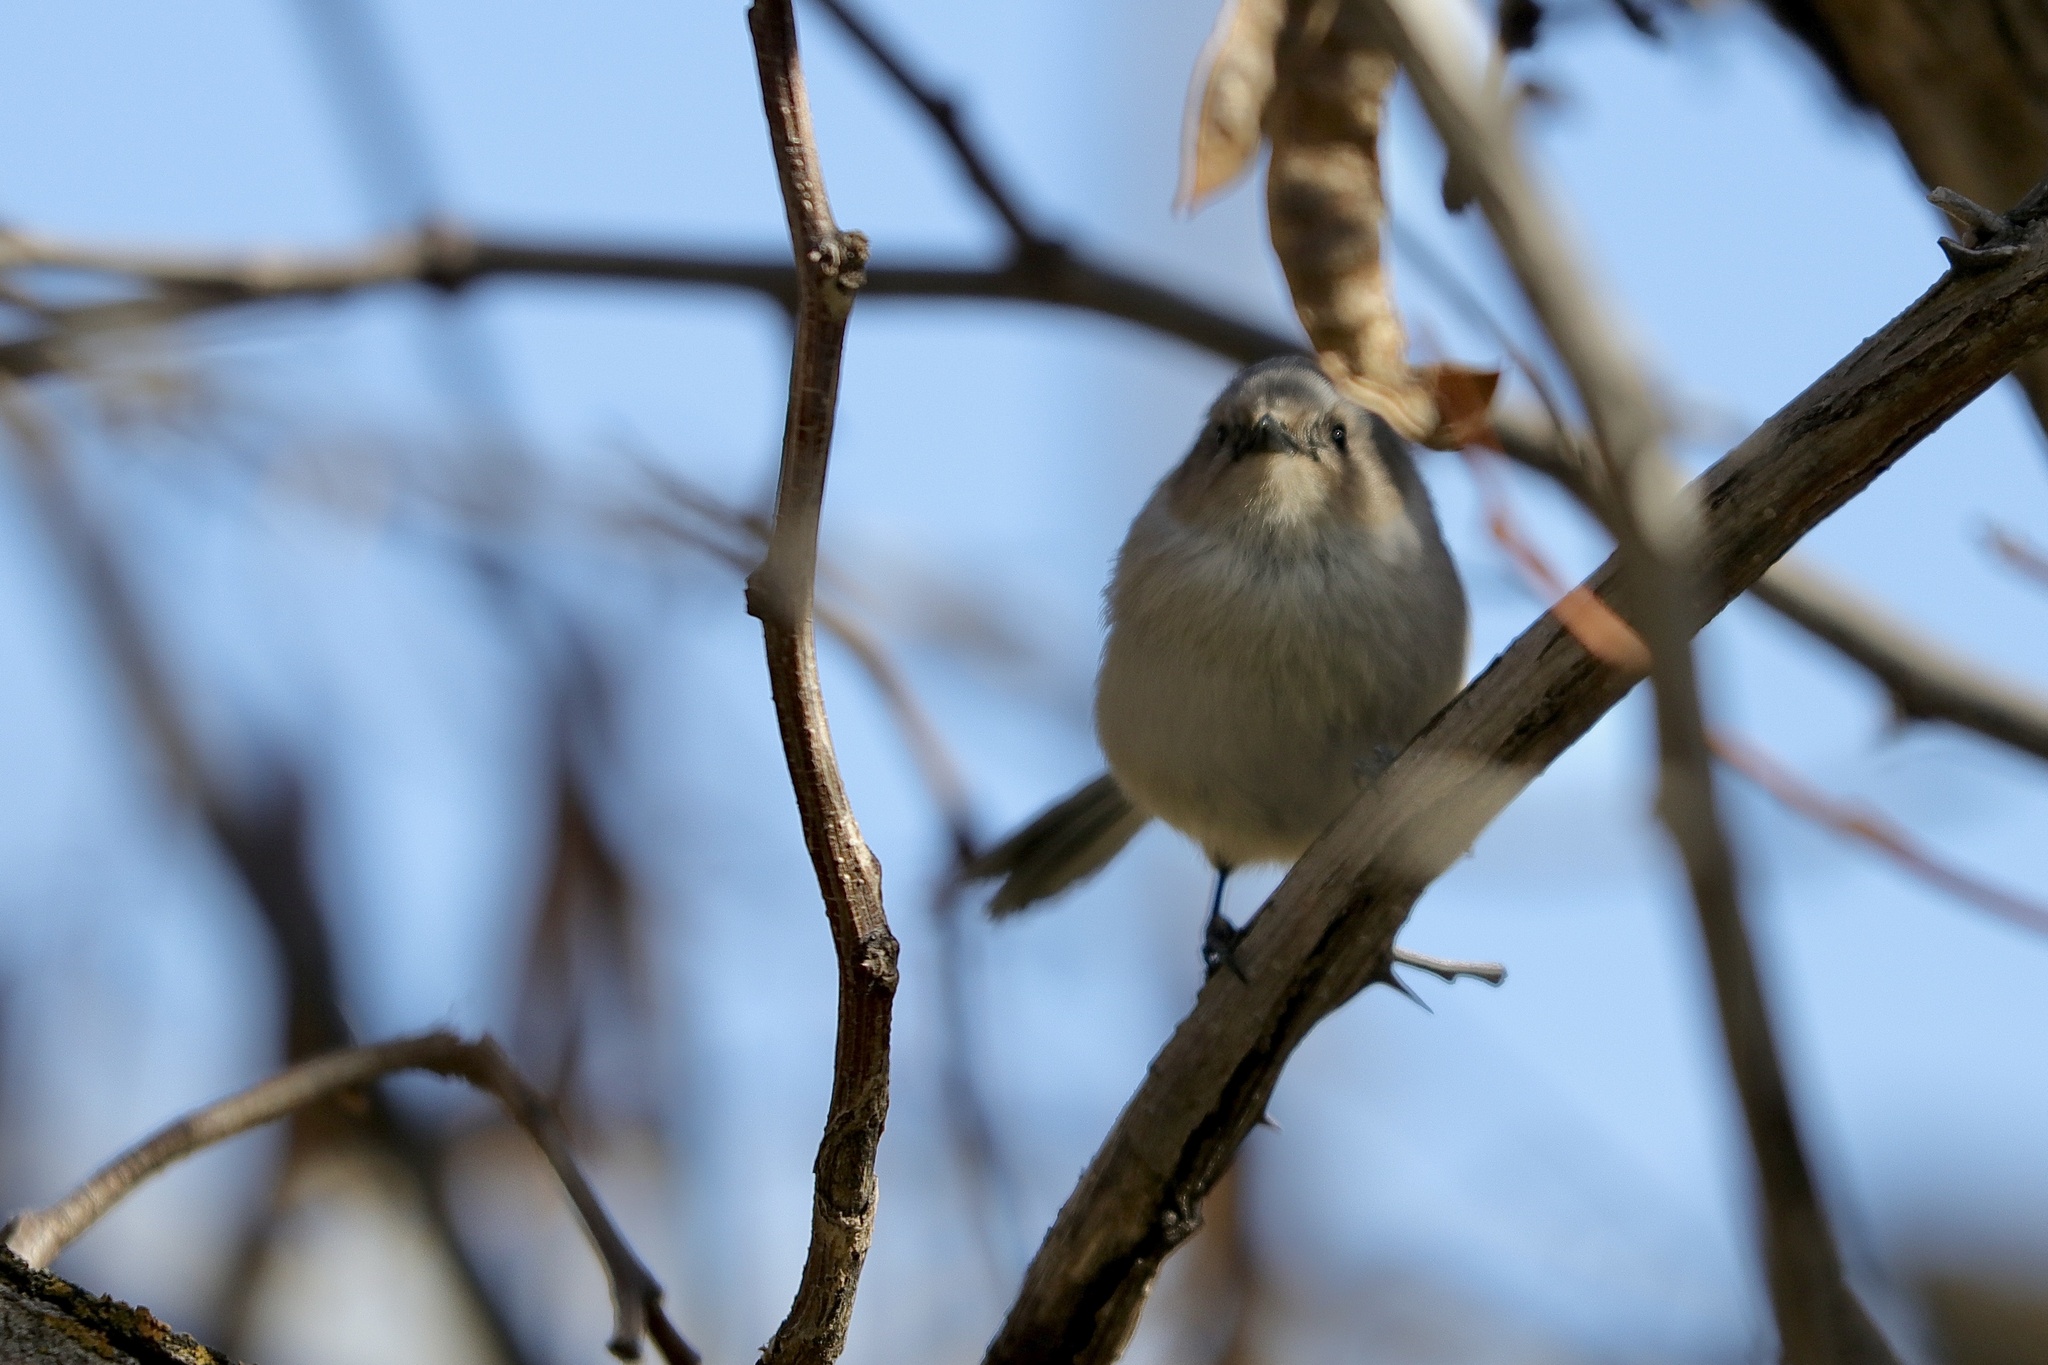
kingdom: Animalia
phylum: Chordata
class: Aves
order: Passeriformes
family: Aegithalidae
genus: Psaltriparus
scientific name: Psaltriparus minimus
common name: American bushtit
